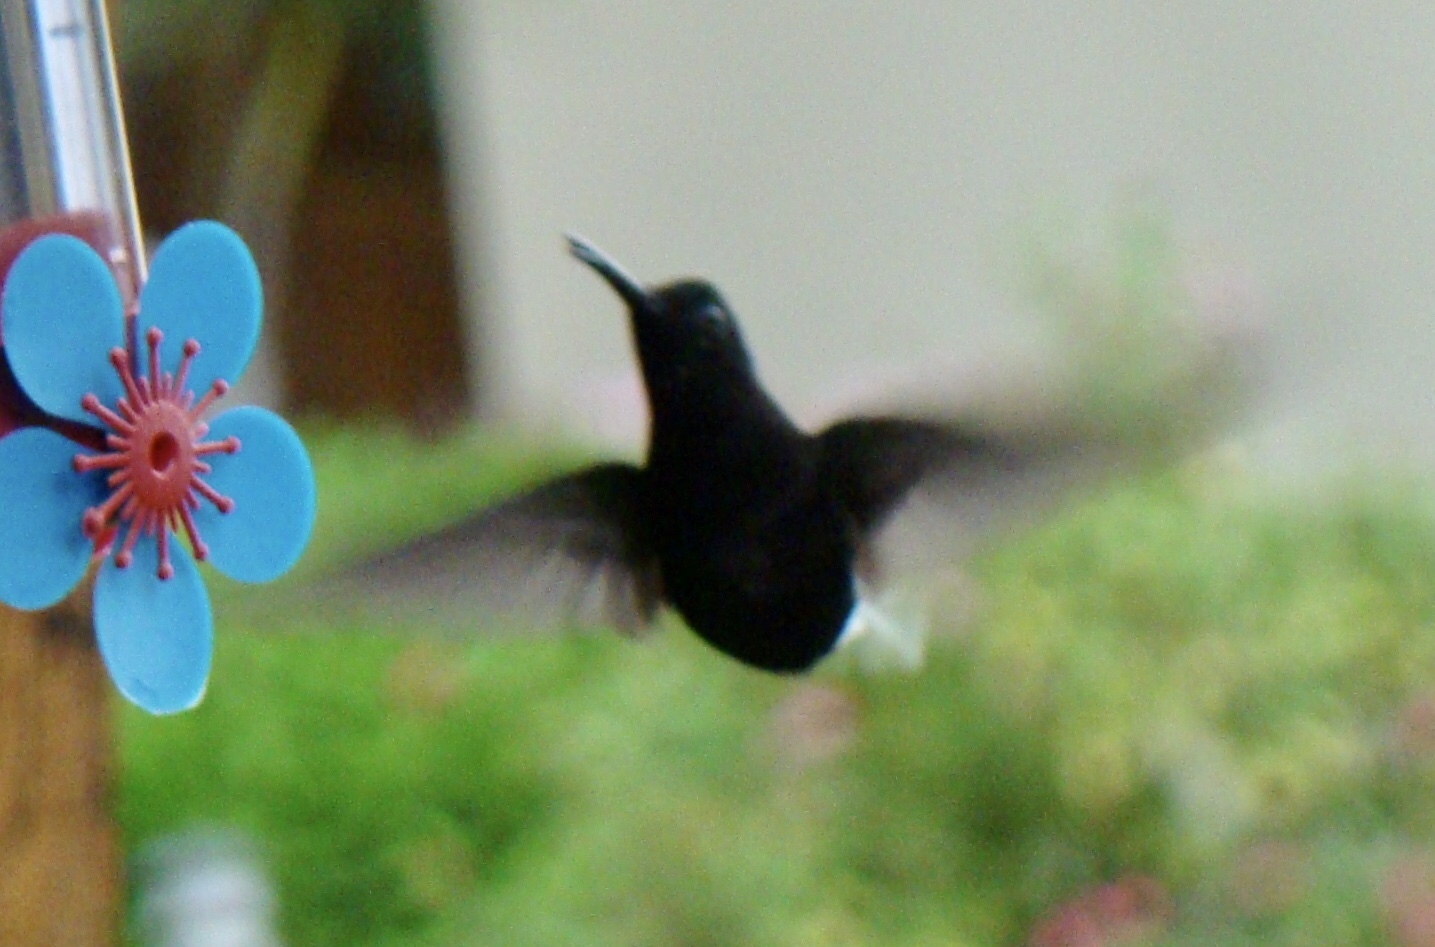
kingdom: Animalia
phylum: Chordata
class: Aves
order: Apodiformes
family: Trochilidae
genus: Florisuga
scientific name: Florisuga fusca
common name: Black jacobin
